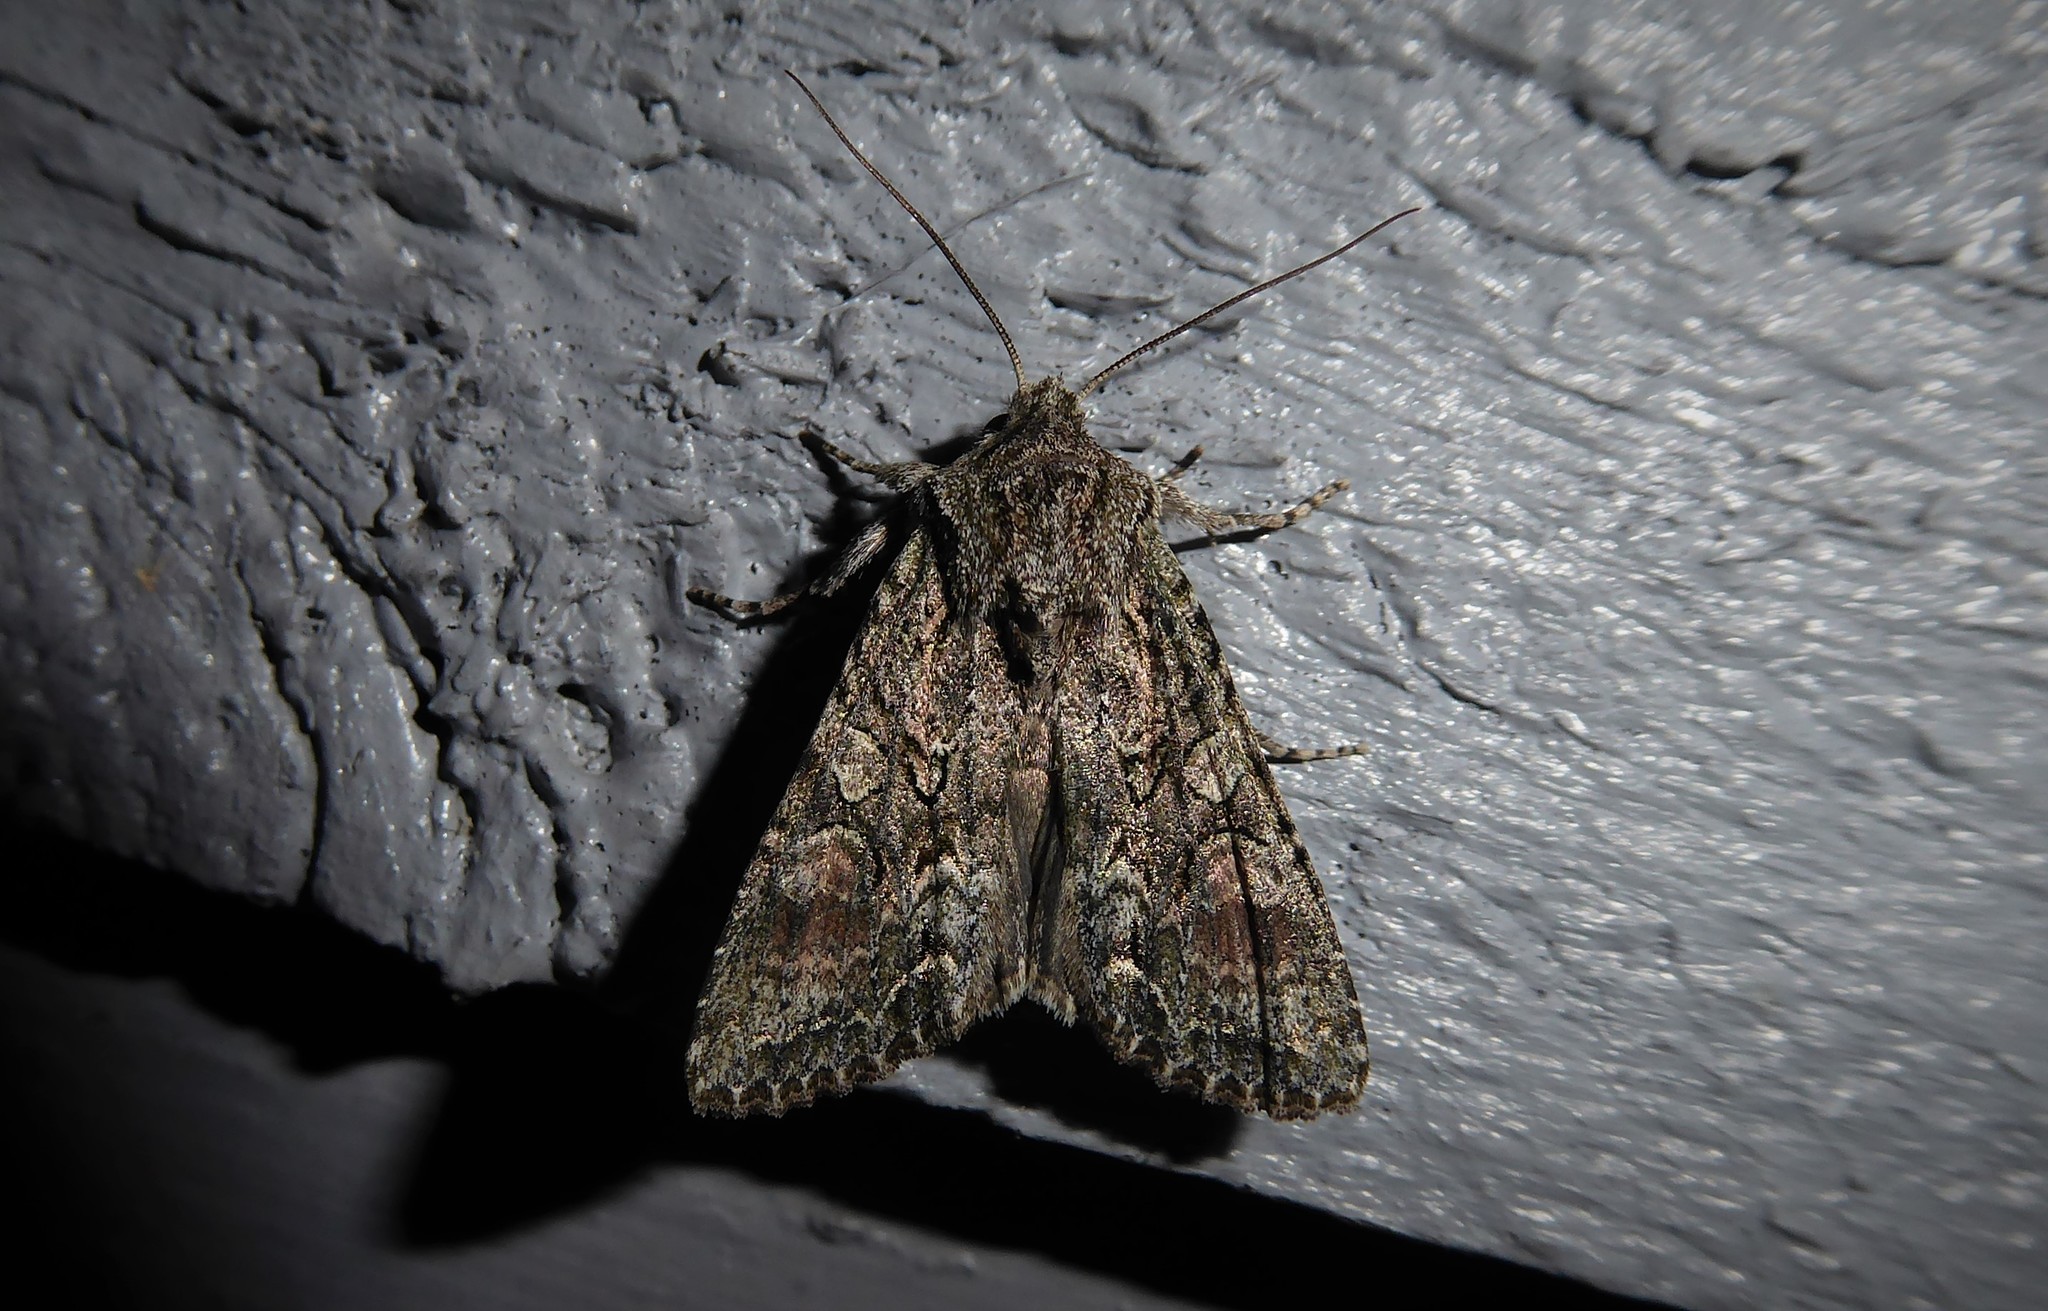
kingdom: Animalia
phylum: Arthropoda
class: Insecta
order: Lepidoptera
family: Noctuidae
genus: Ichneutica
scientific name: Ichneutica mutans
